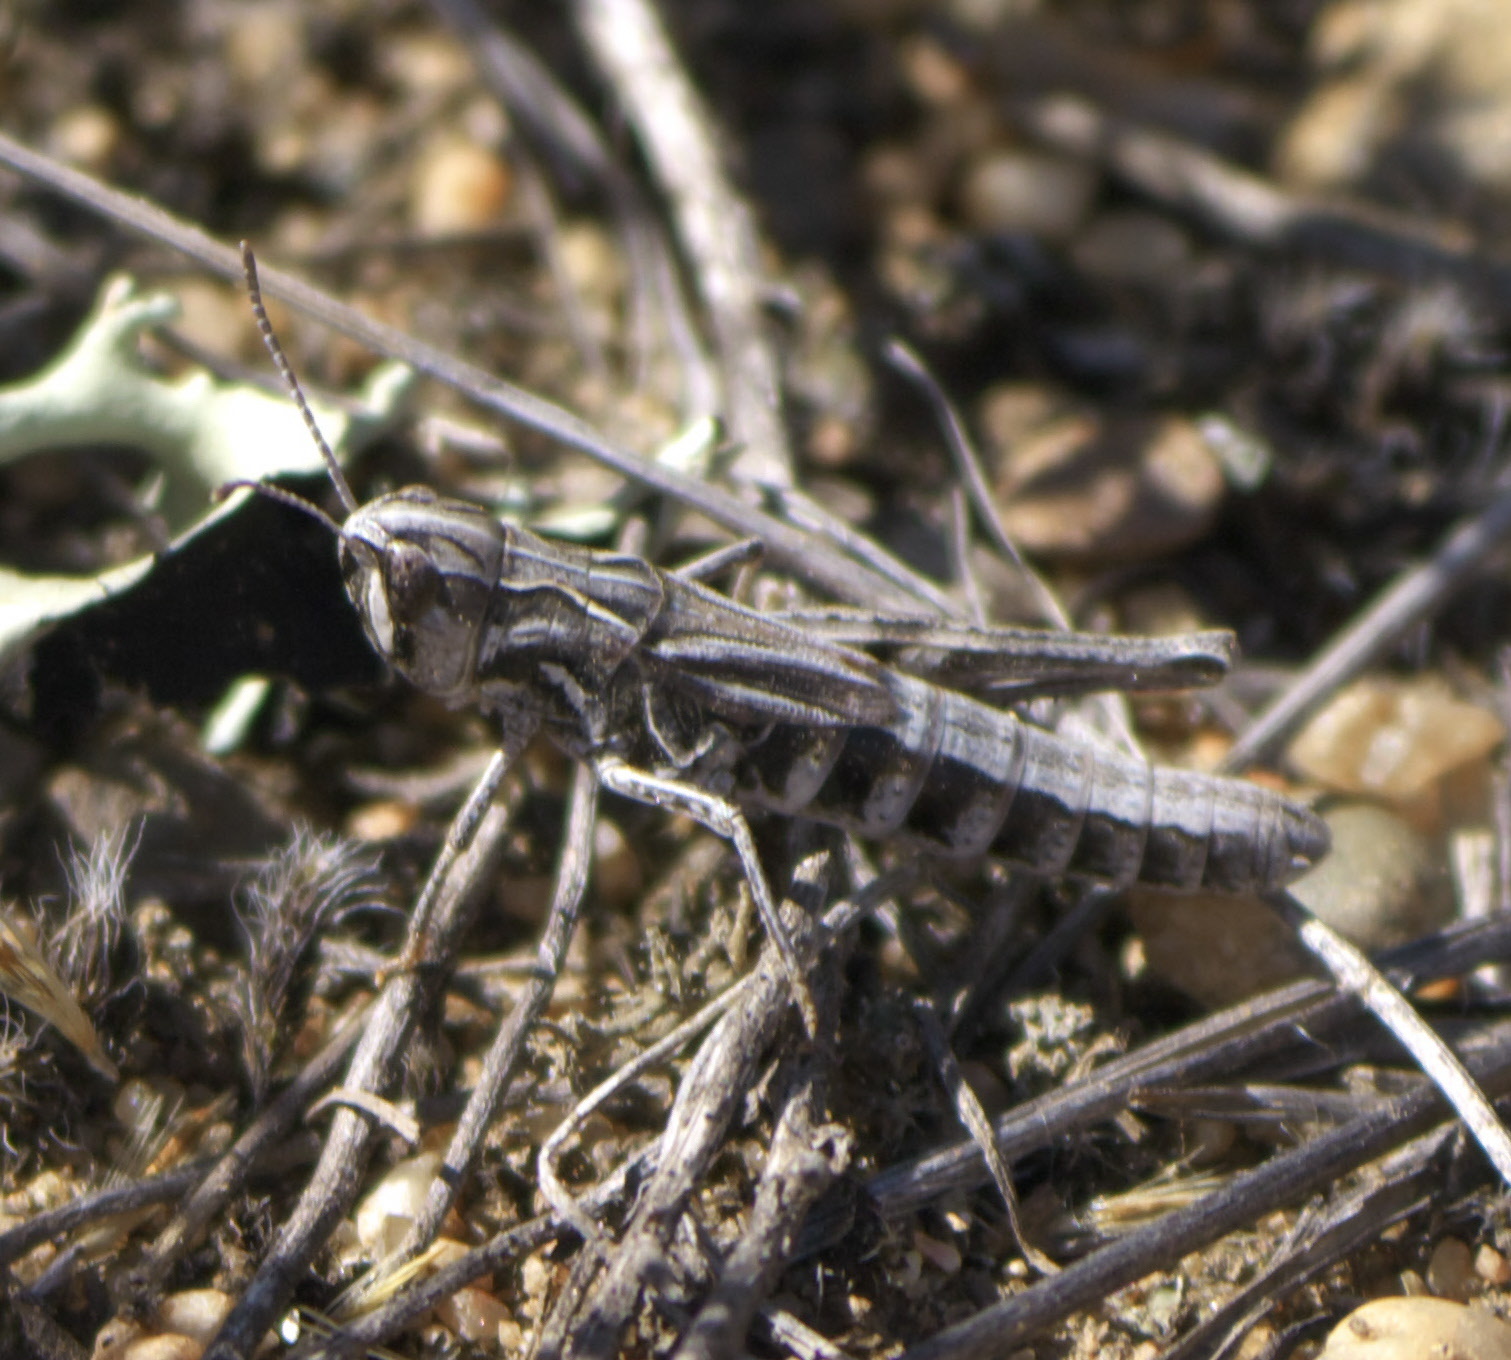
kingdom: Animalia
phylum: Arthropoda
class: Insecta
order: Orthoptera
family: Acrididae
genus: Aeropedellus
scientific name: Aeropedellus clavatus
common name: Clubhorned grasshopper
